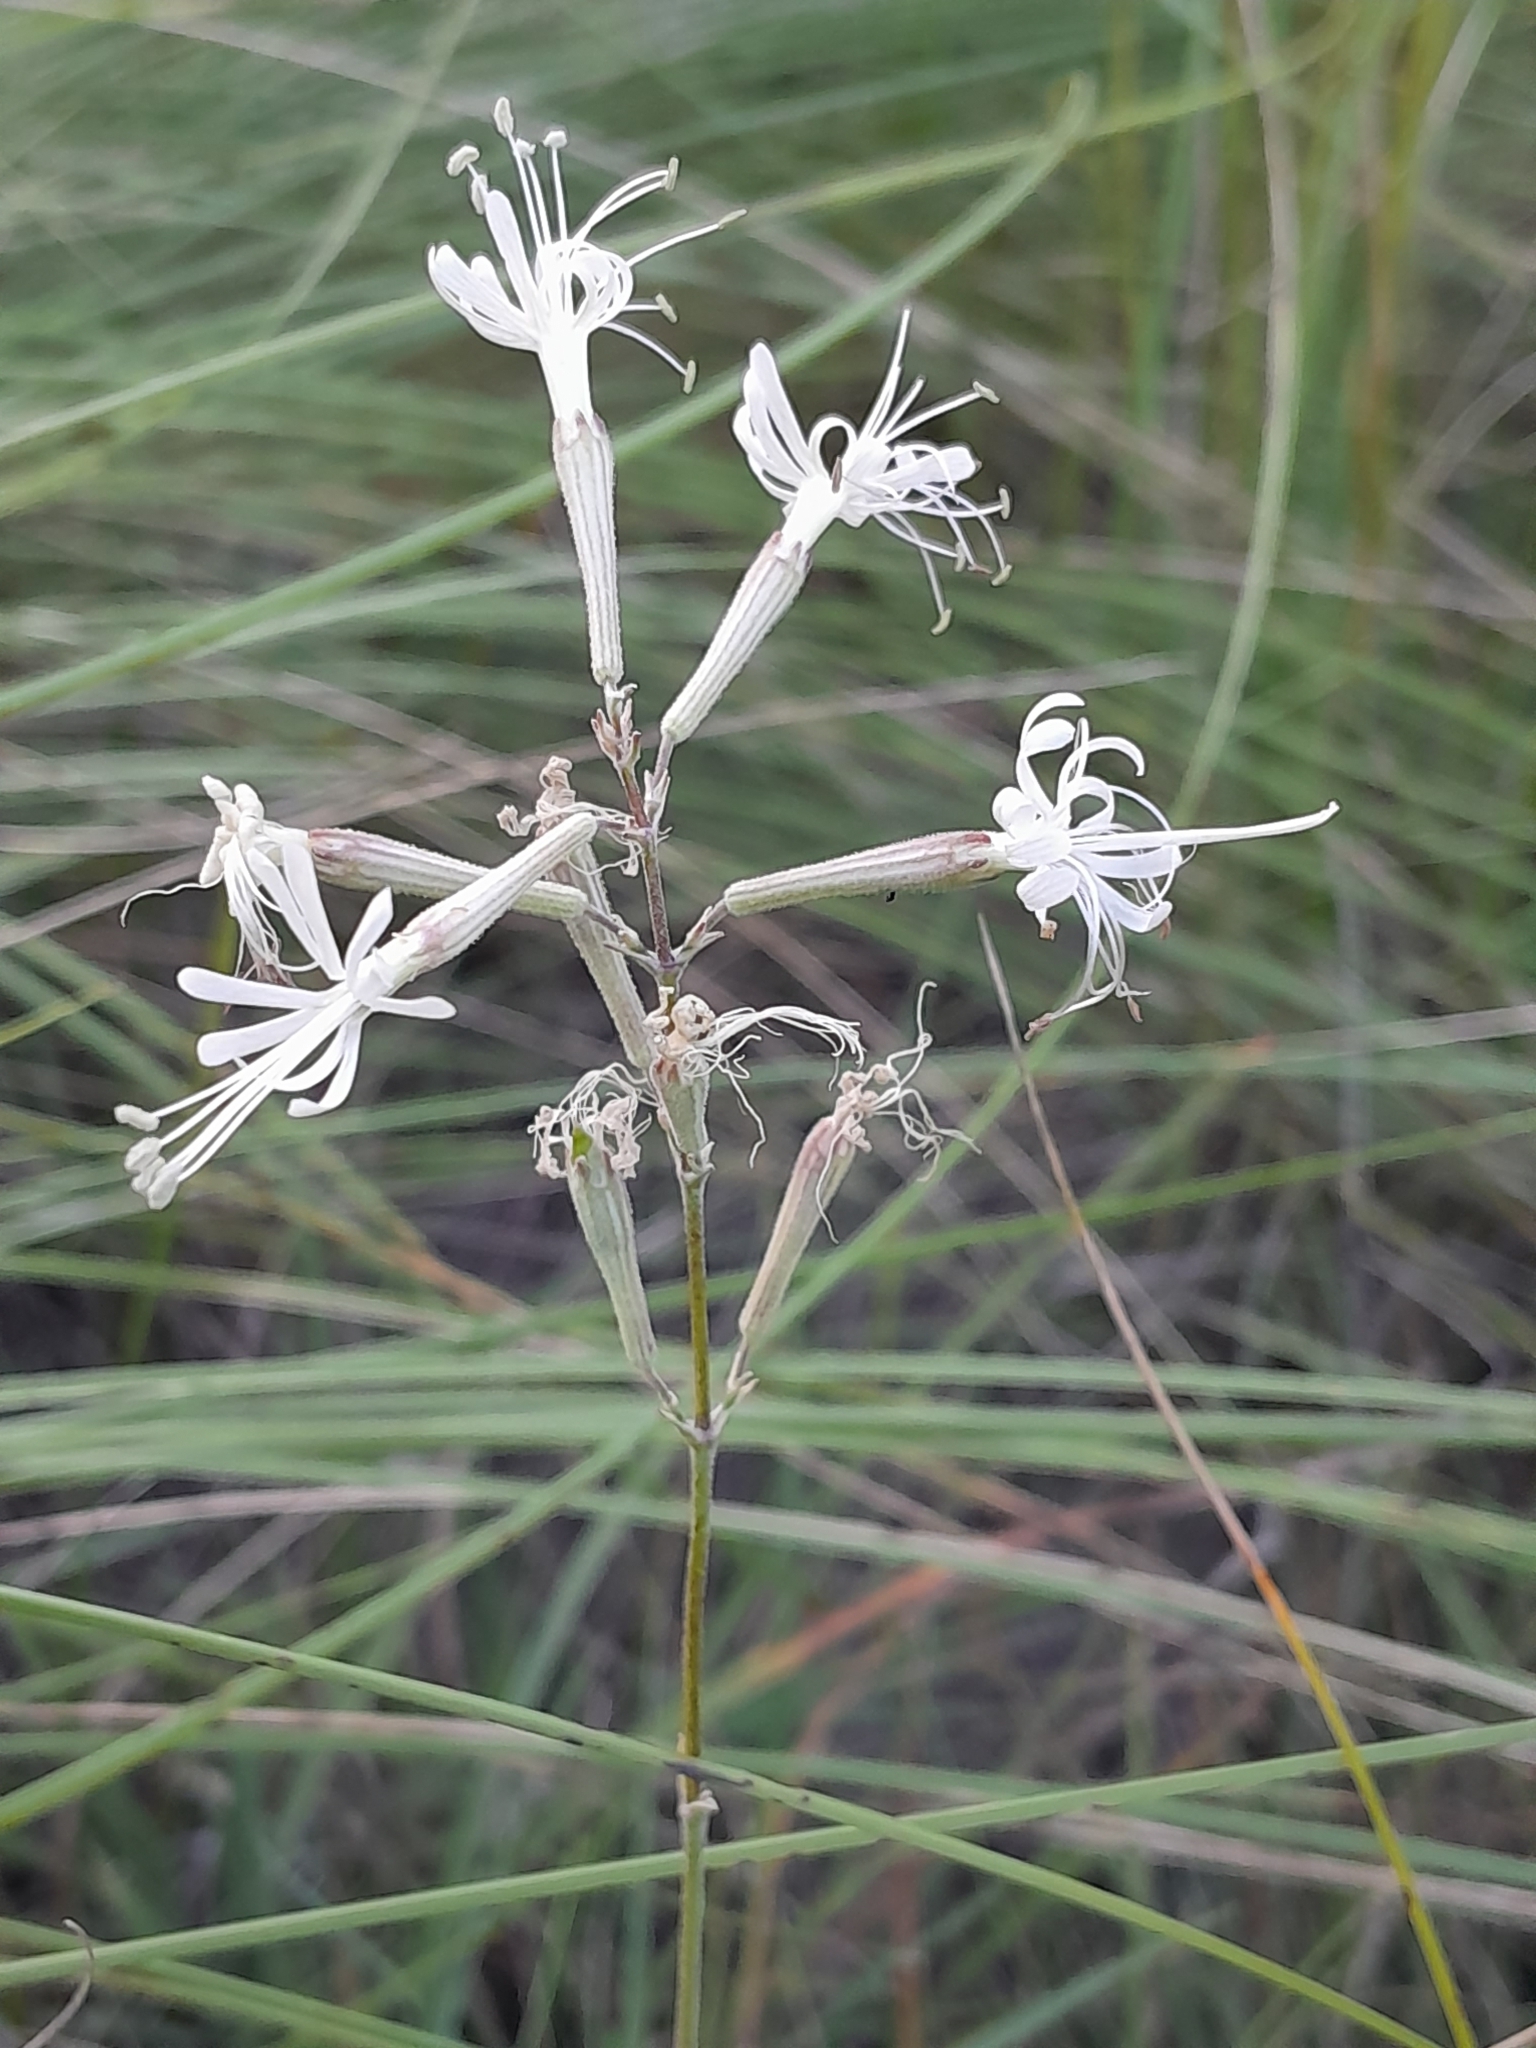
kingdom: Plantae
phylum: Tracheophyta
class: Magnoliopsida
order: Caryophyllales
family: Caryophyllaceae
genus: Silene
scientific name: Silene multiflora
